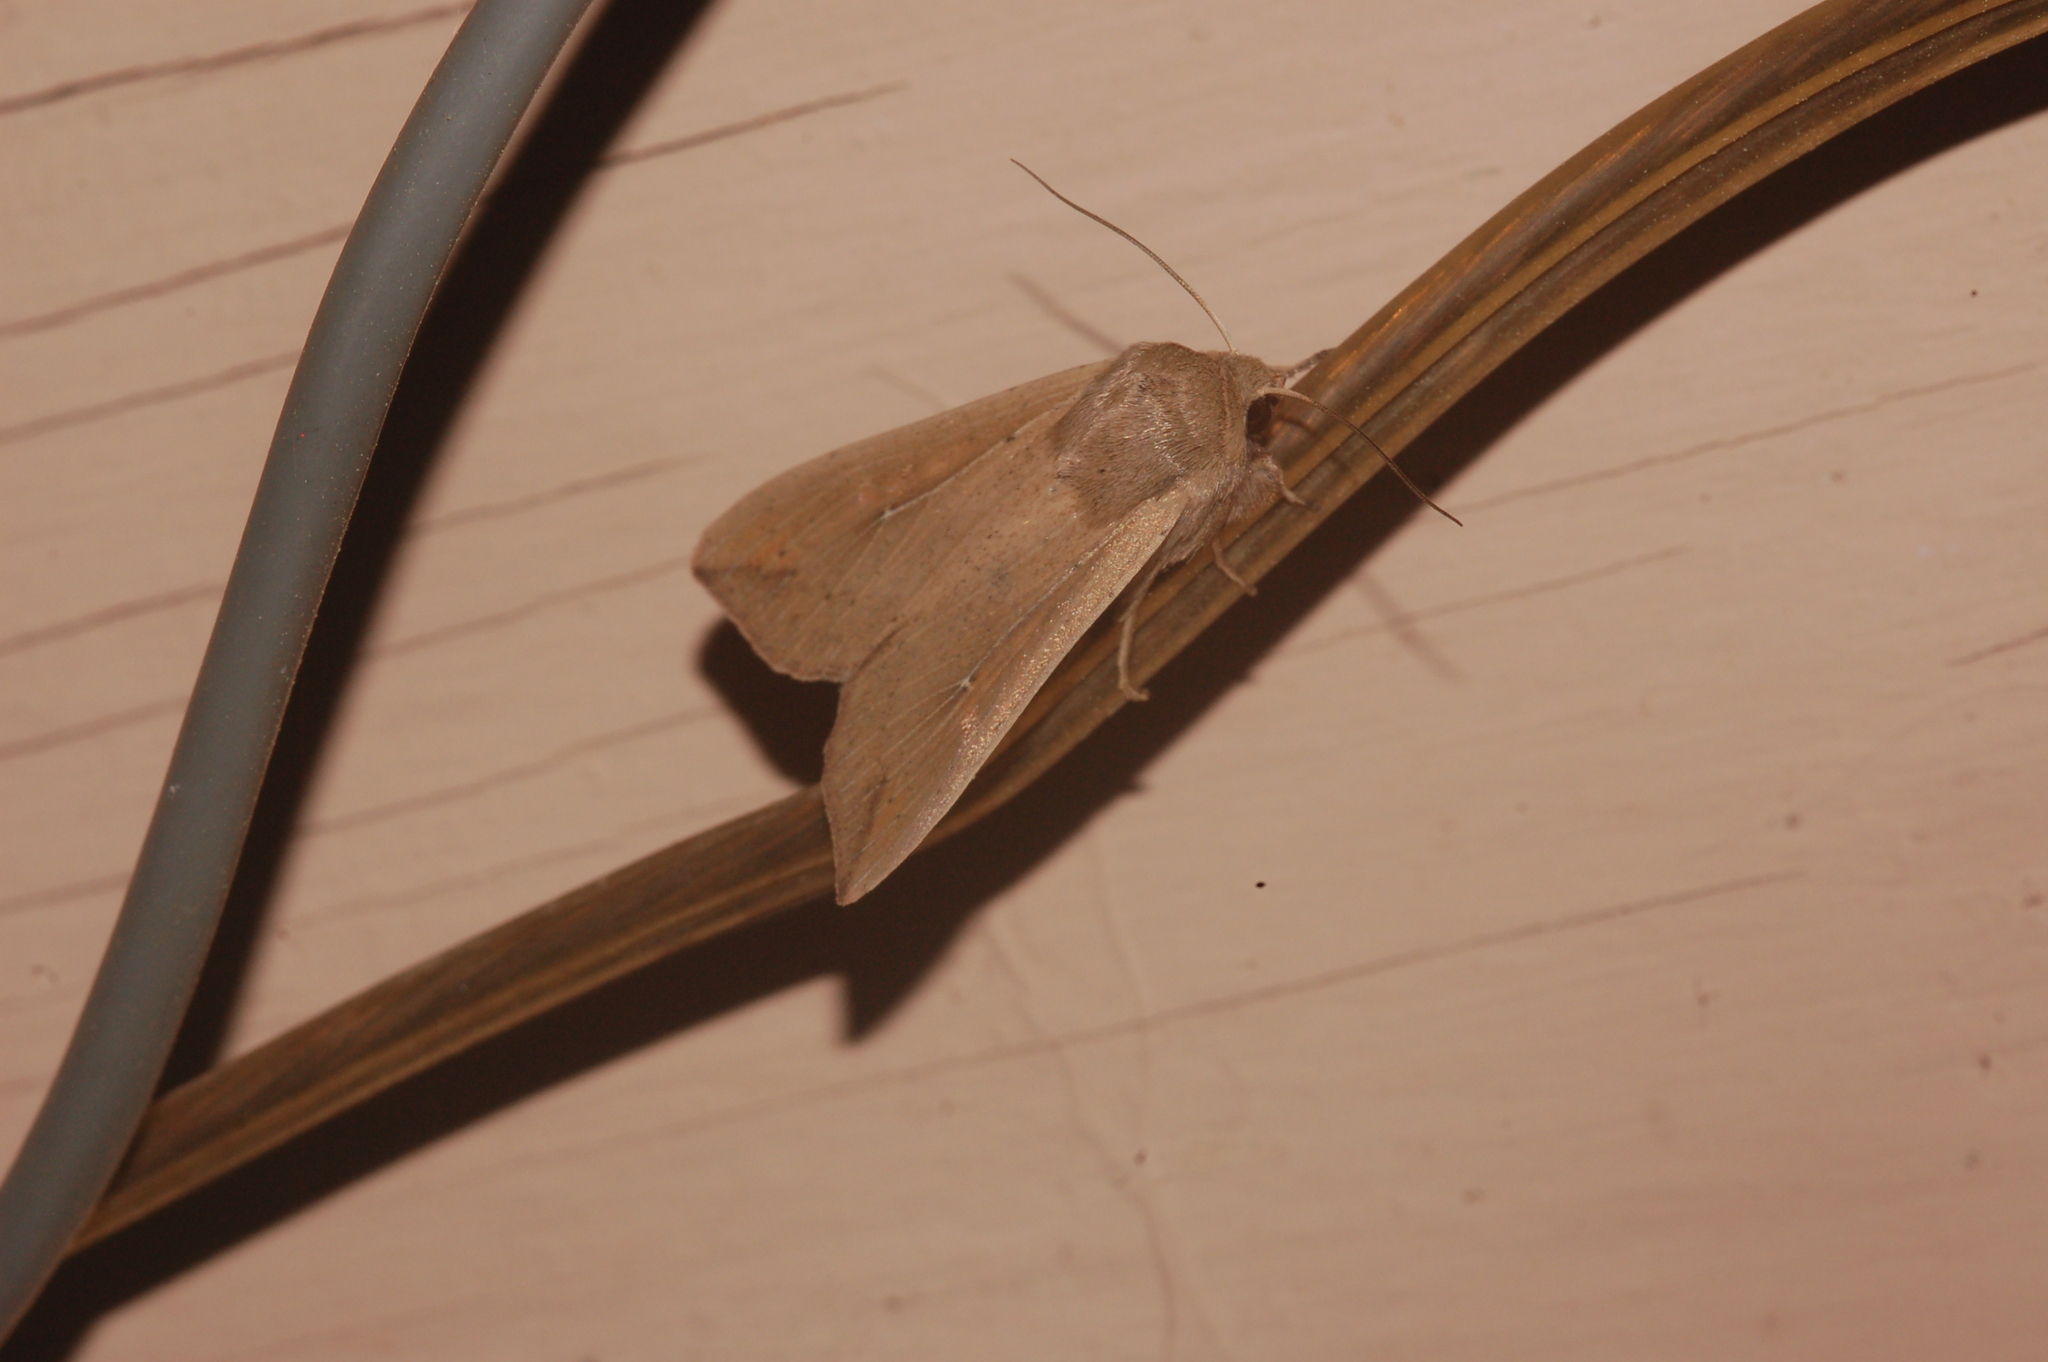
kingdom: Animalia
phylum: Arthropoda
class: Insecta
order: Lepidoptera
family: Noctuidae
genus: Mythimna
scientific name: Mythimna unipuncta
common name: White-speck
